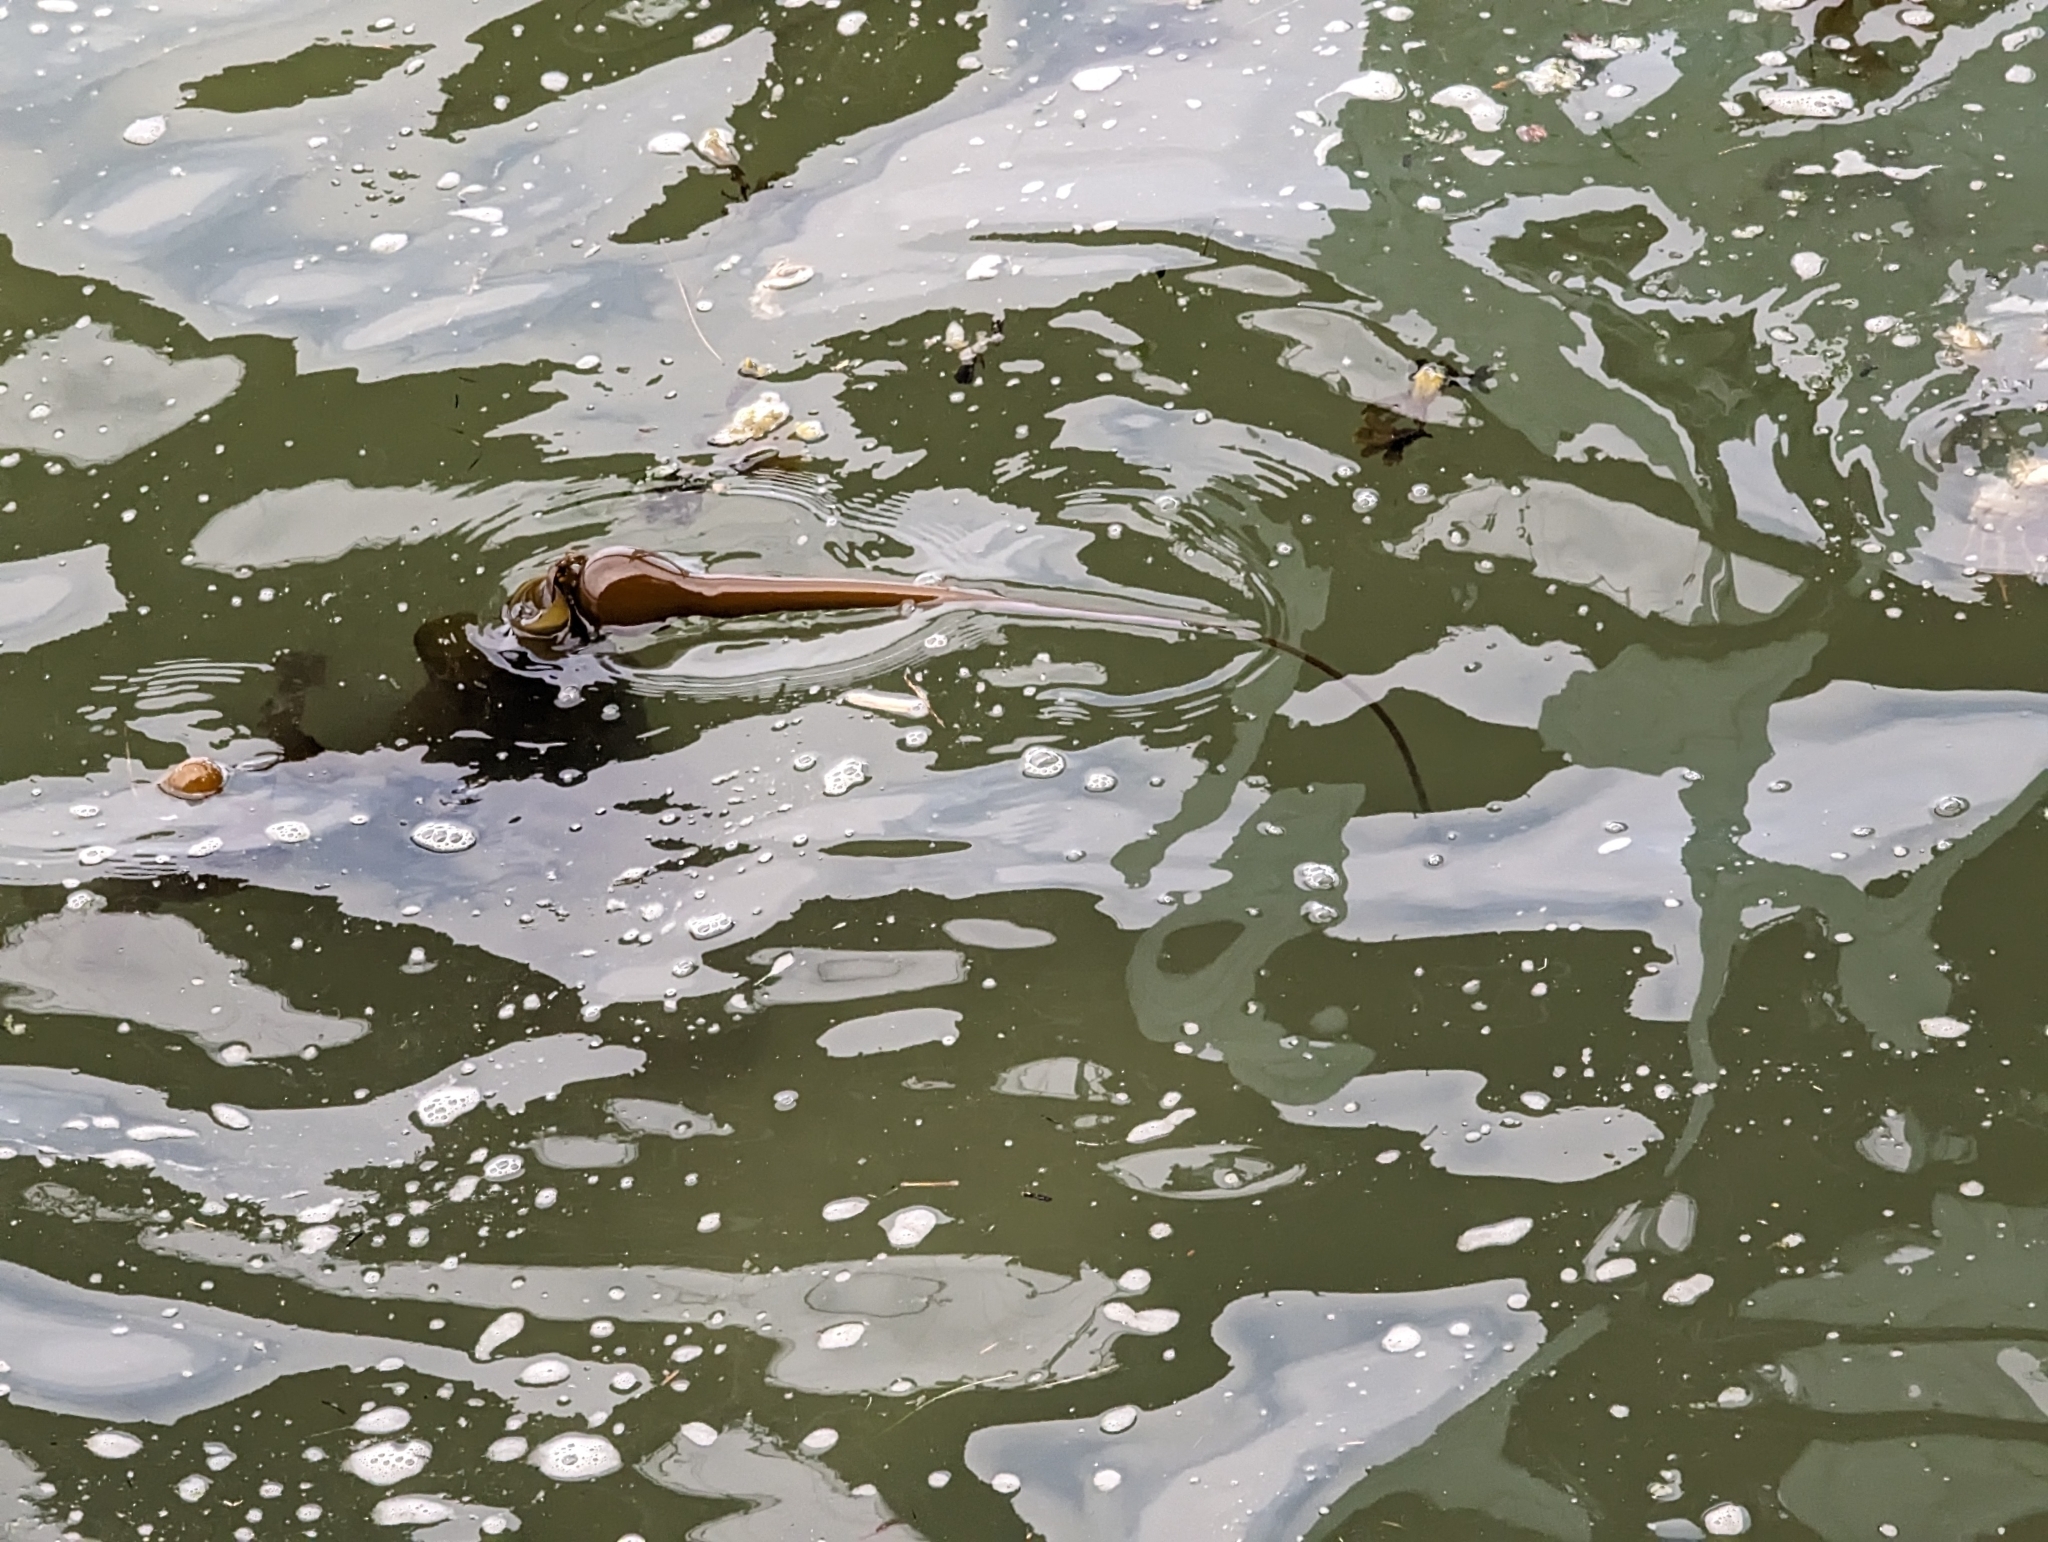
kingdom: Chromista
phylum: Ochrophyta
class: Phaeophyceae
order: Laminariales
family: Laminariaceae
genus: Nereocystis
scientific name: Nereocystis luetkeana
